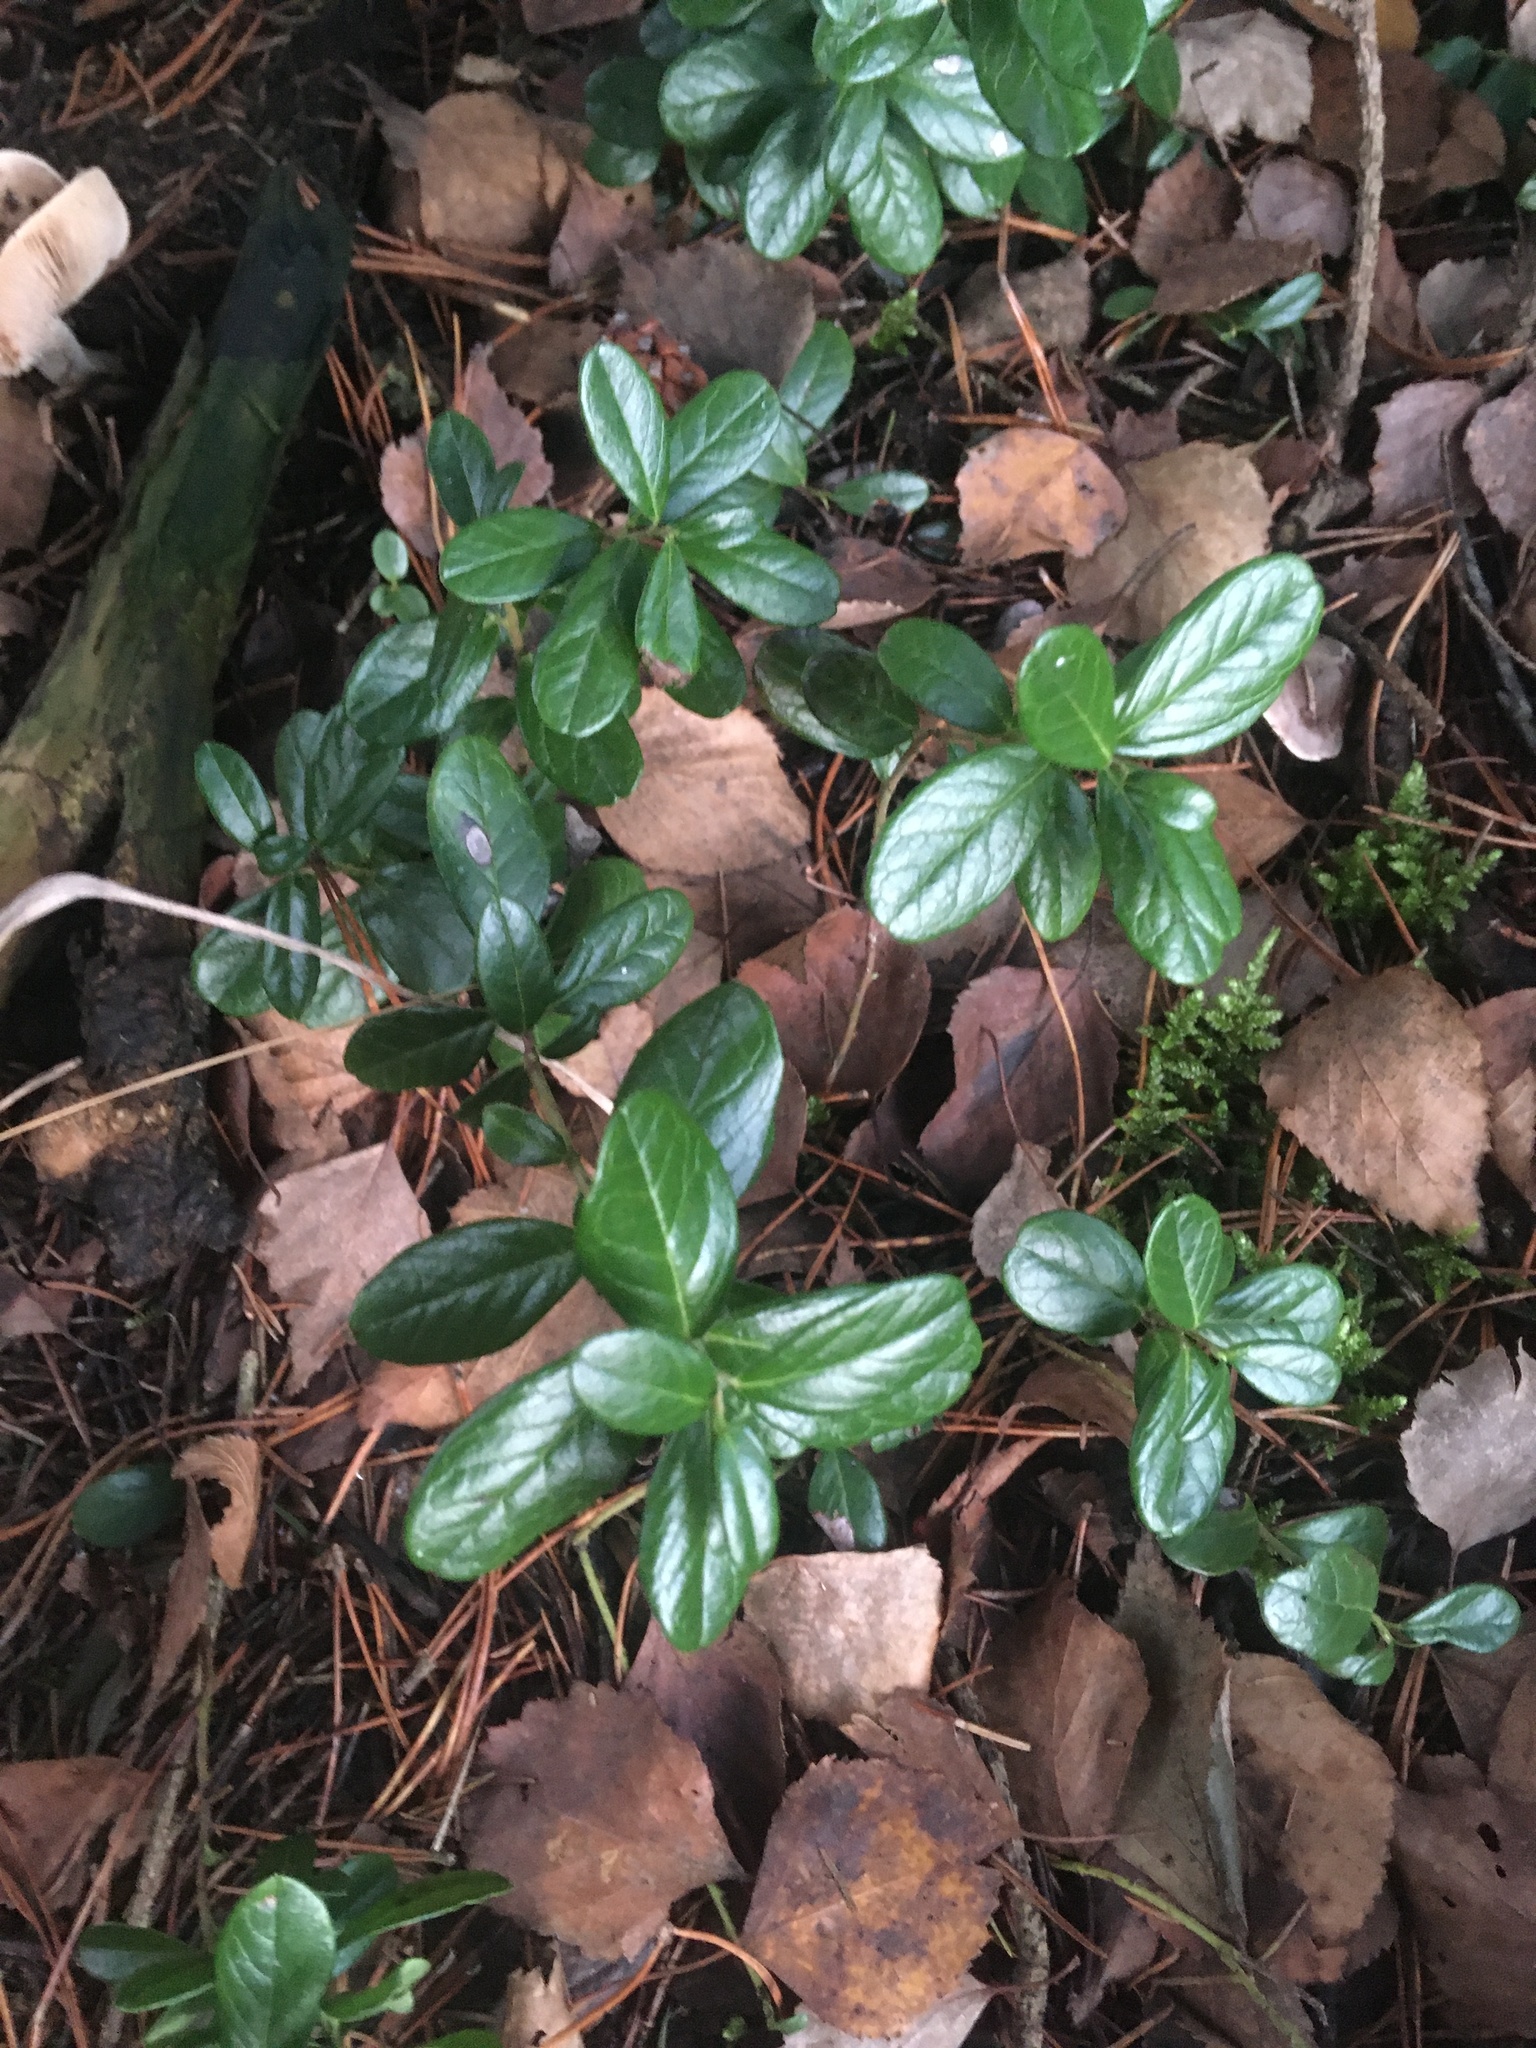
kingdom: Plantae
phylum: Tracheophyta
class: Magnoliopsida
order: Ericales
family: Ericaceae
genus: Vaccinium
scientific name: Vaccinium vitis-idaea
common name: Cowberry
